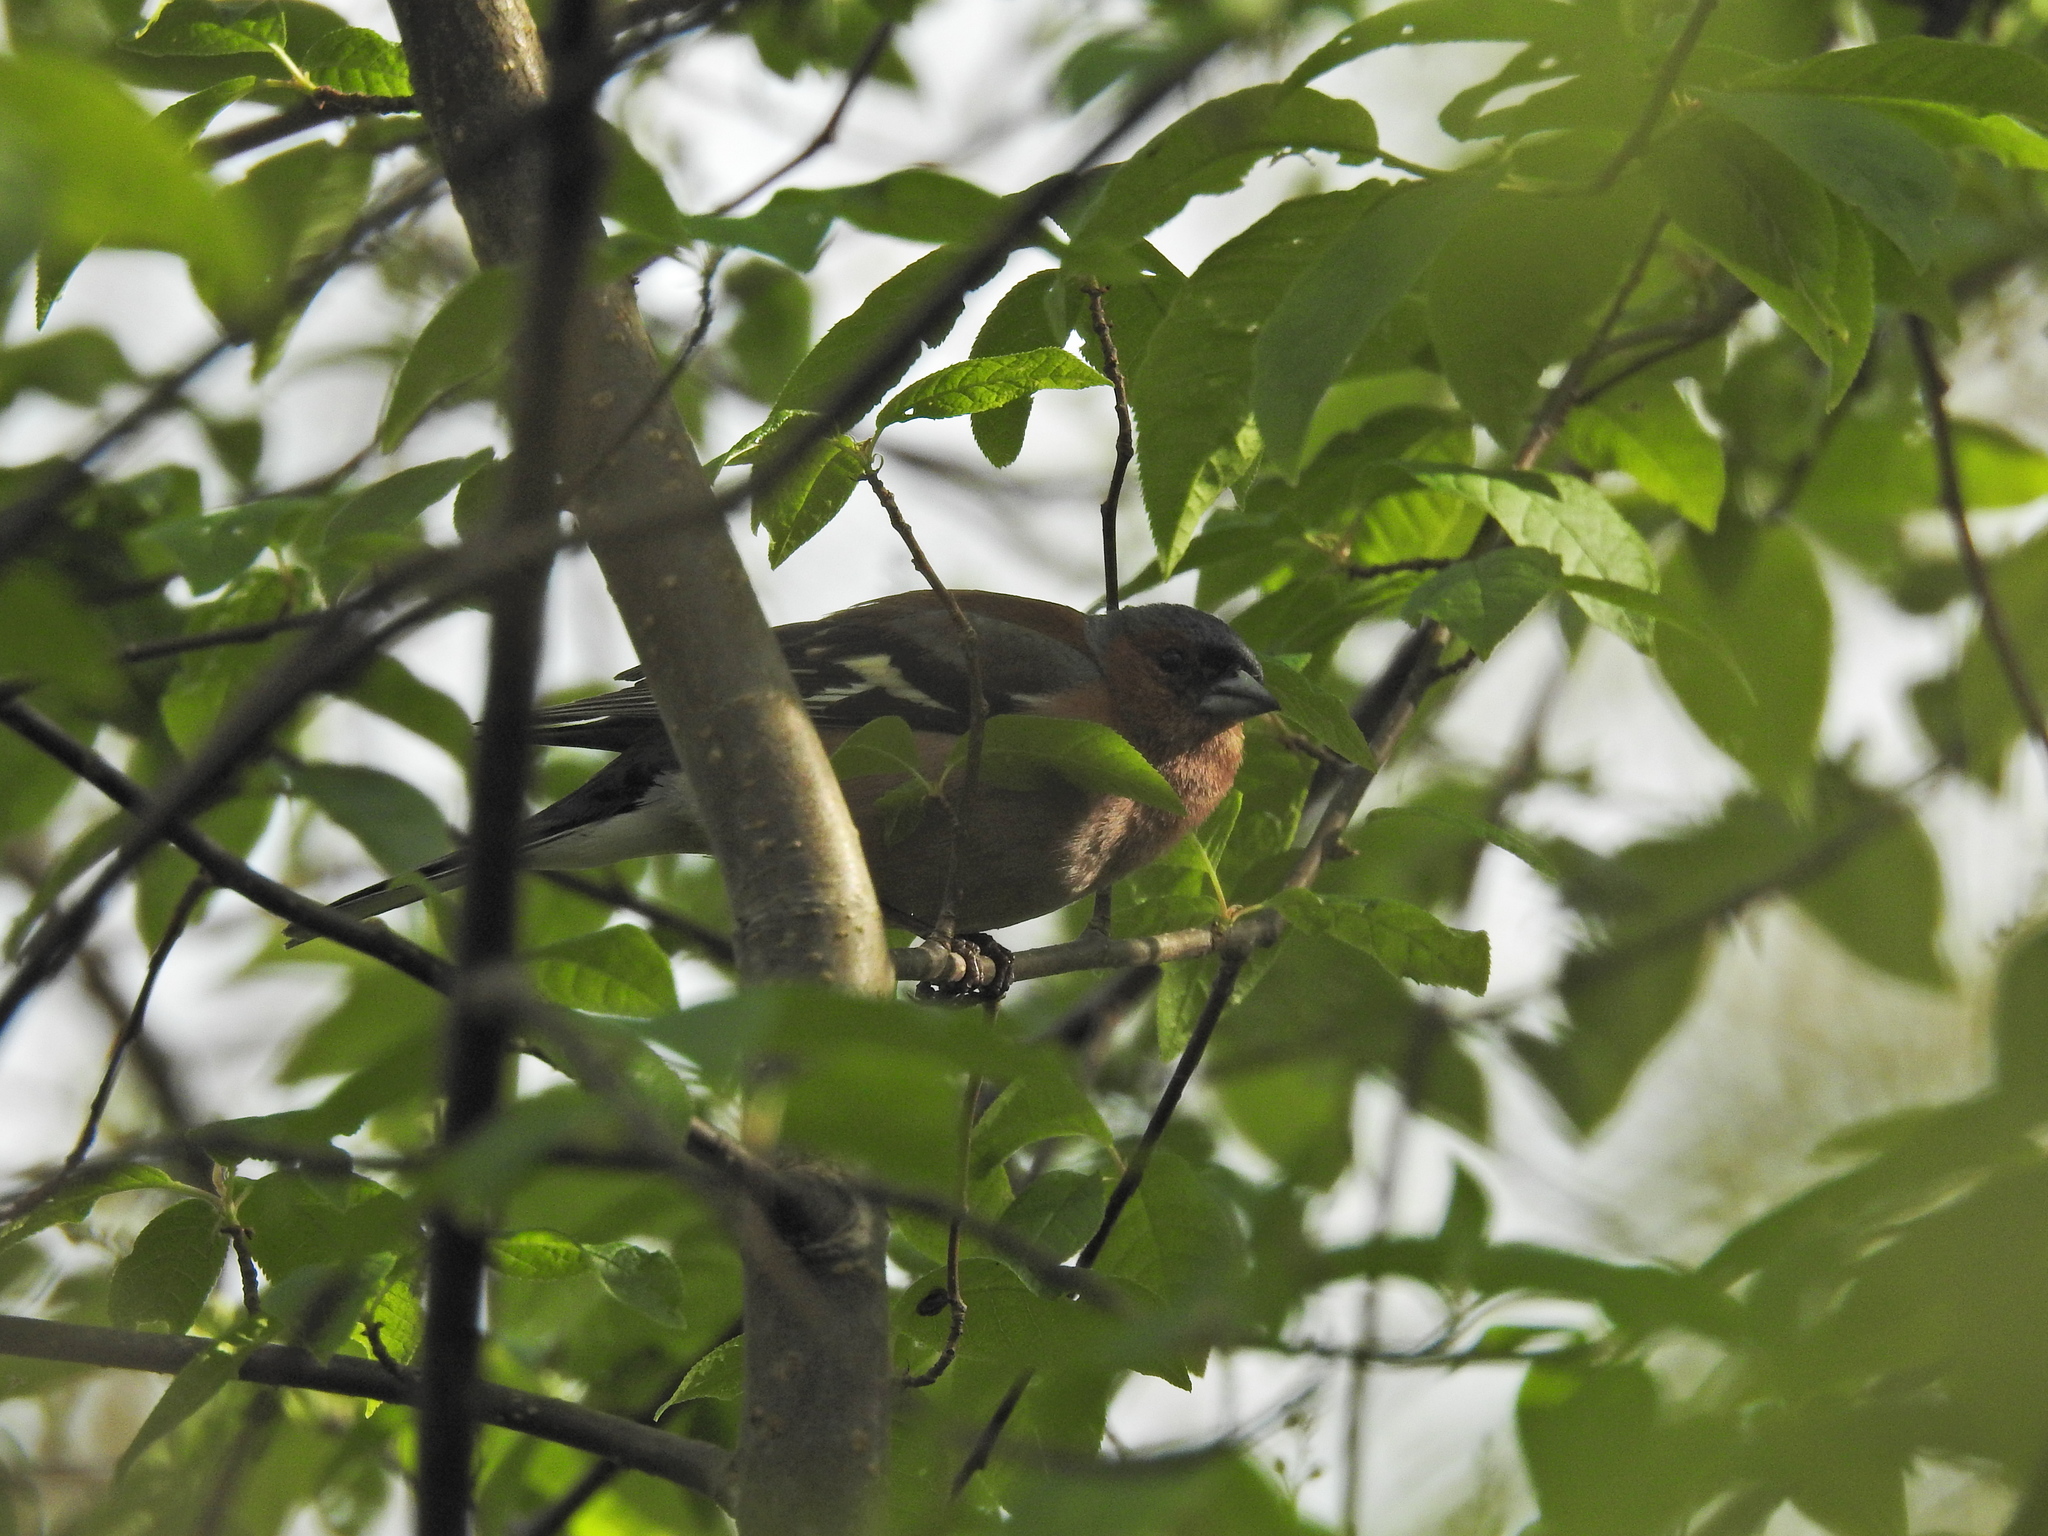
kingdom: Animalia
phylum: Chordata
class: Aves
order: Passeriformes
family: Fringillidae
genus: Fringilla
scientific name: Fringilla coelebs
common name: Common chaffinch
